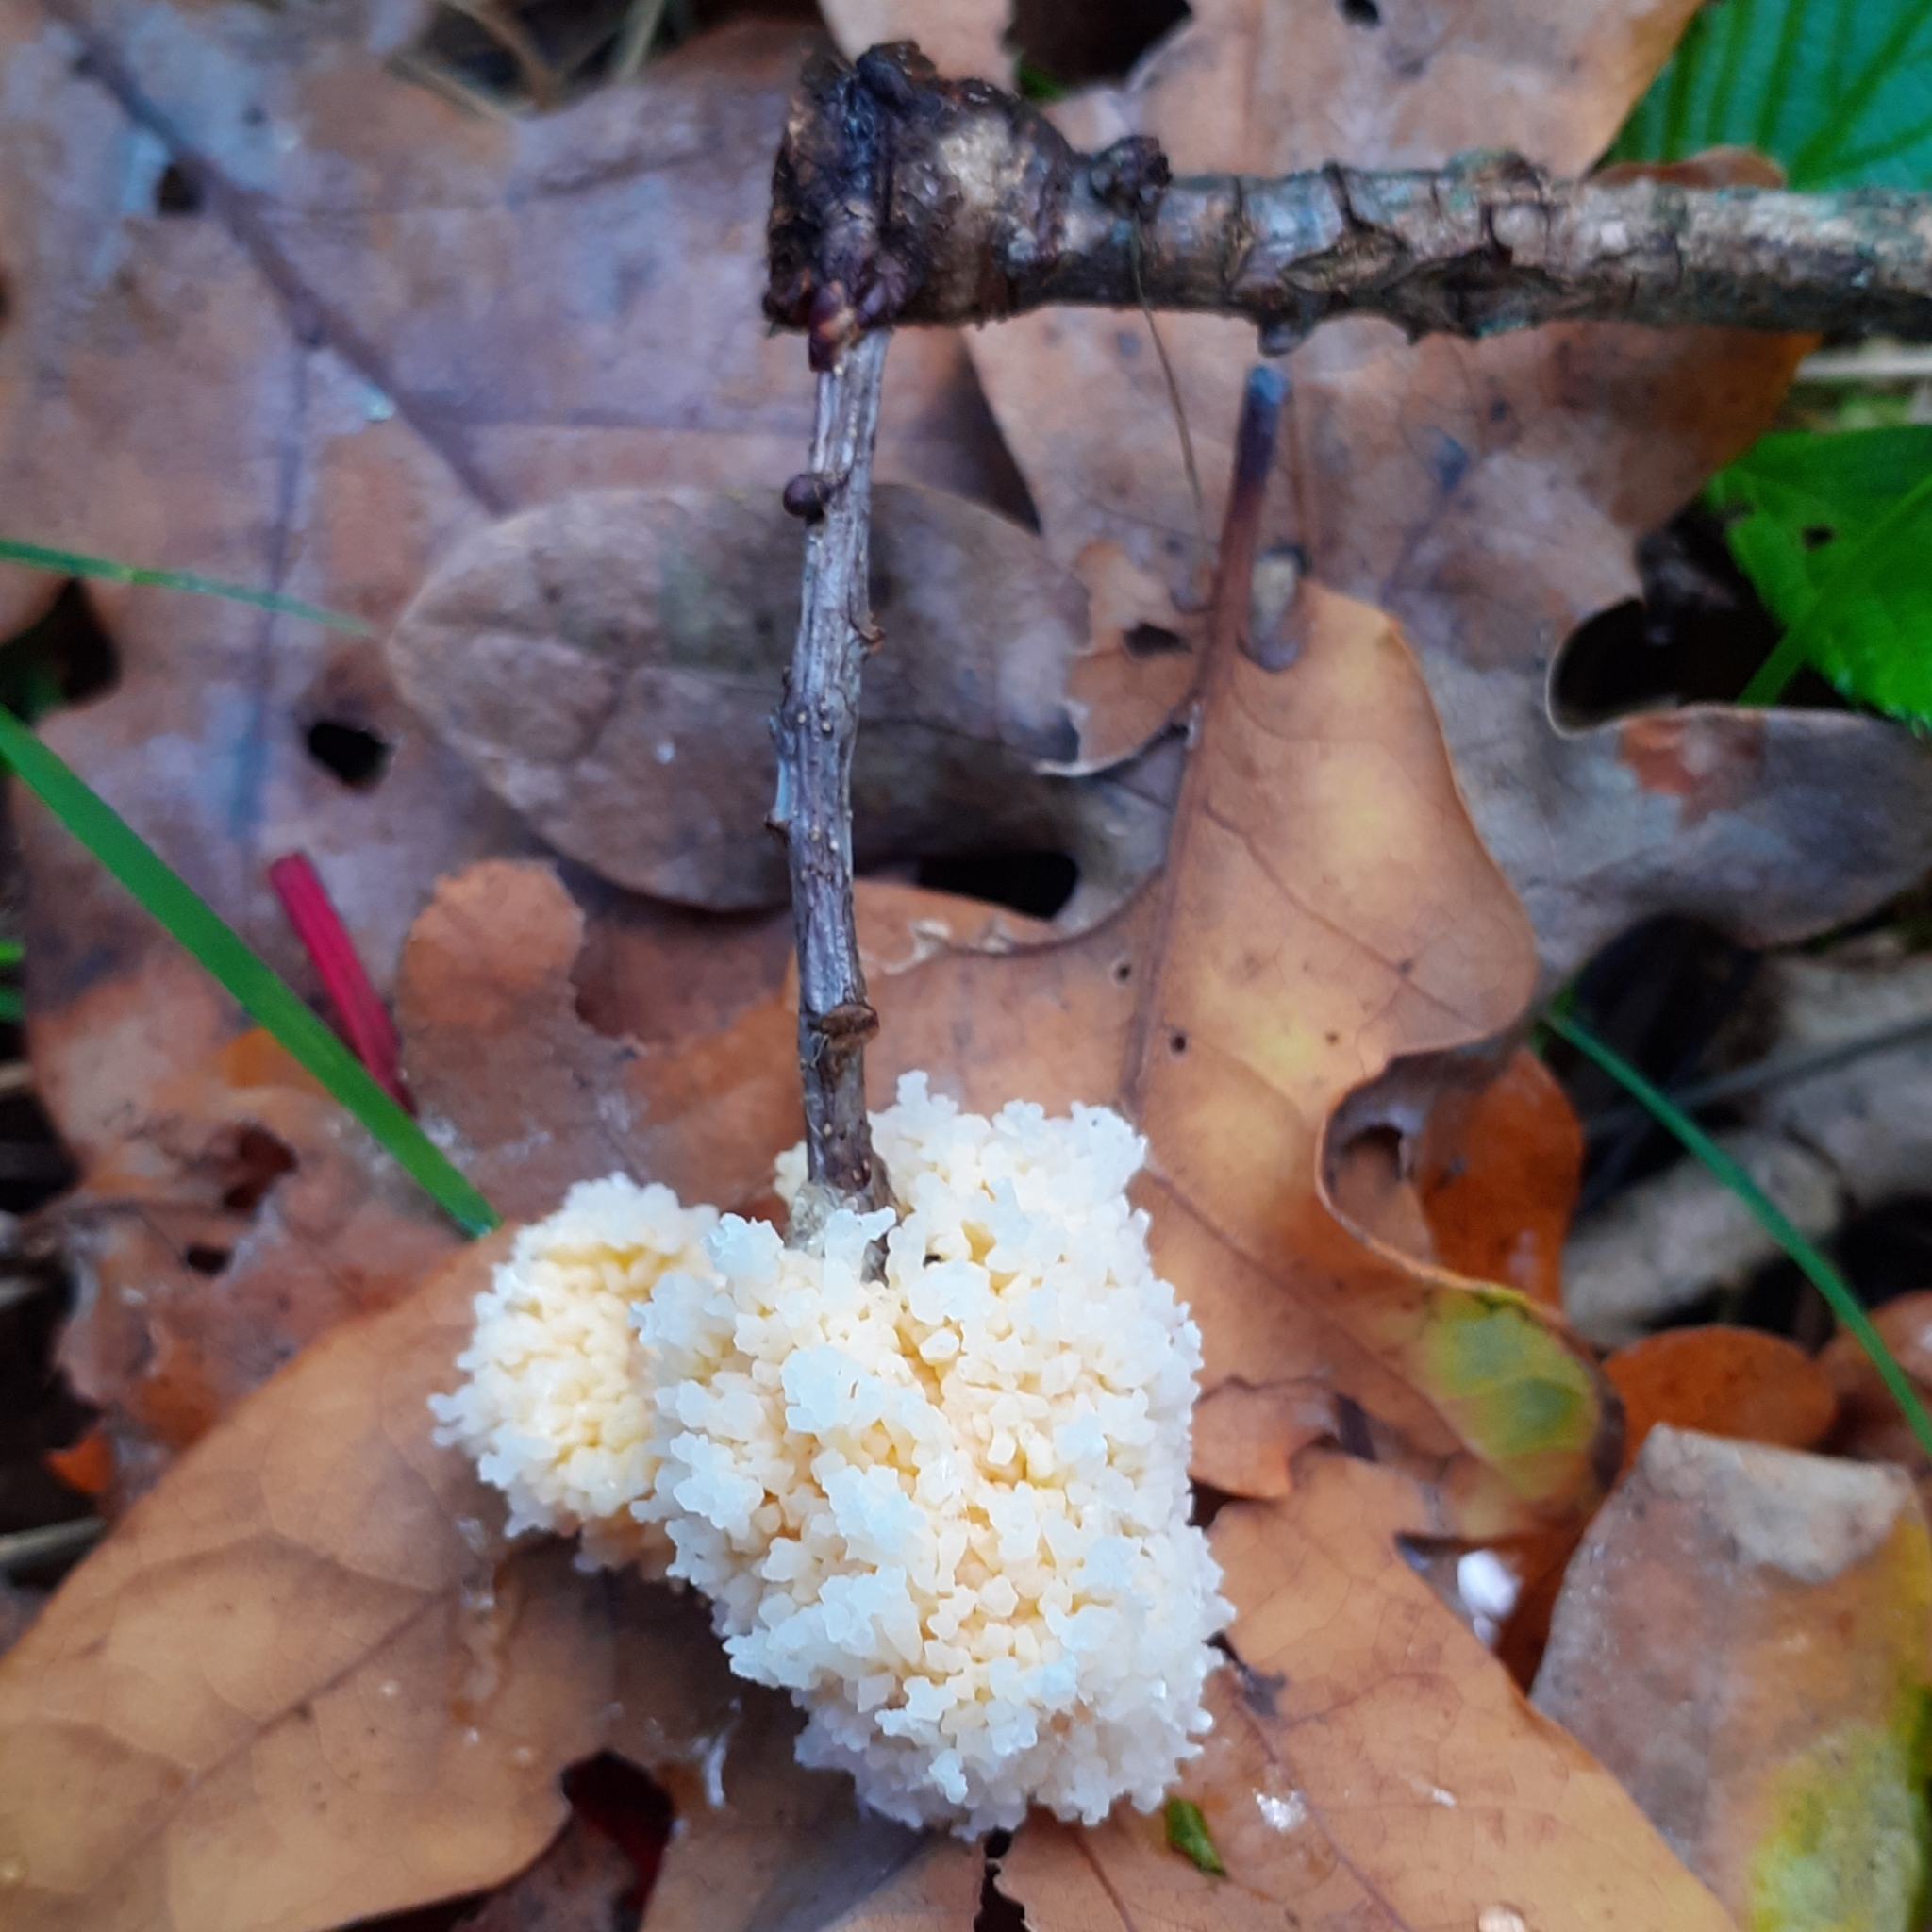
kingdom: Protozoa
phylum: Mycetozoa
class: Myxomycetes
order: Physarales
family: Physaraceae
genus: Didymium
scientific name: Didymium
